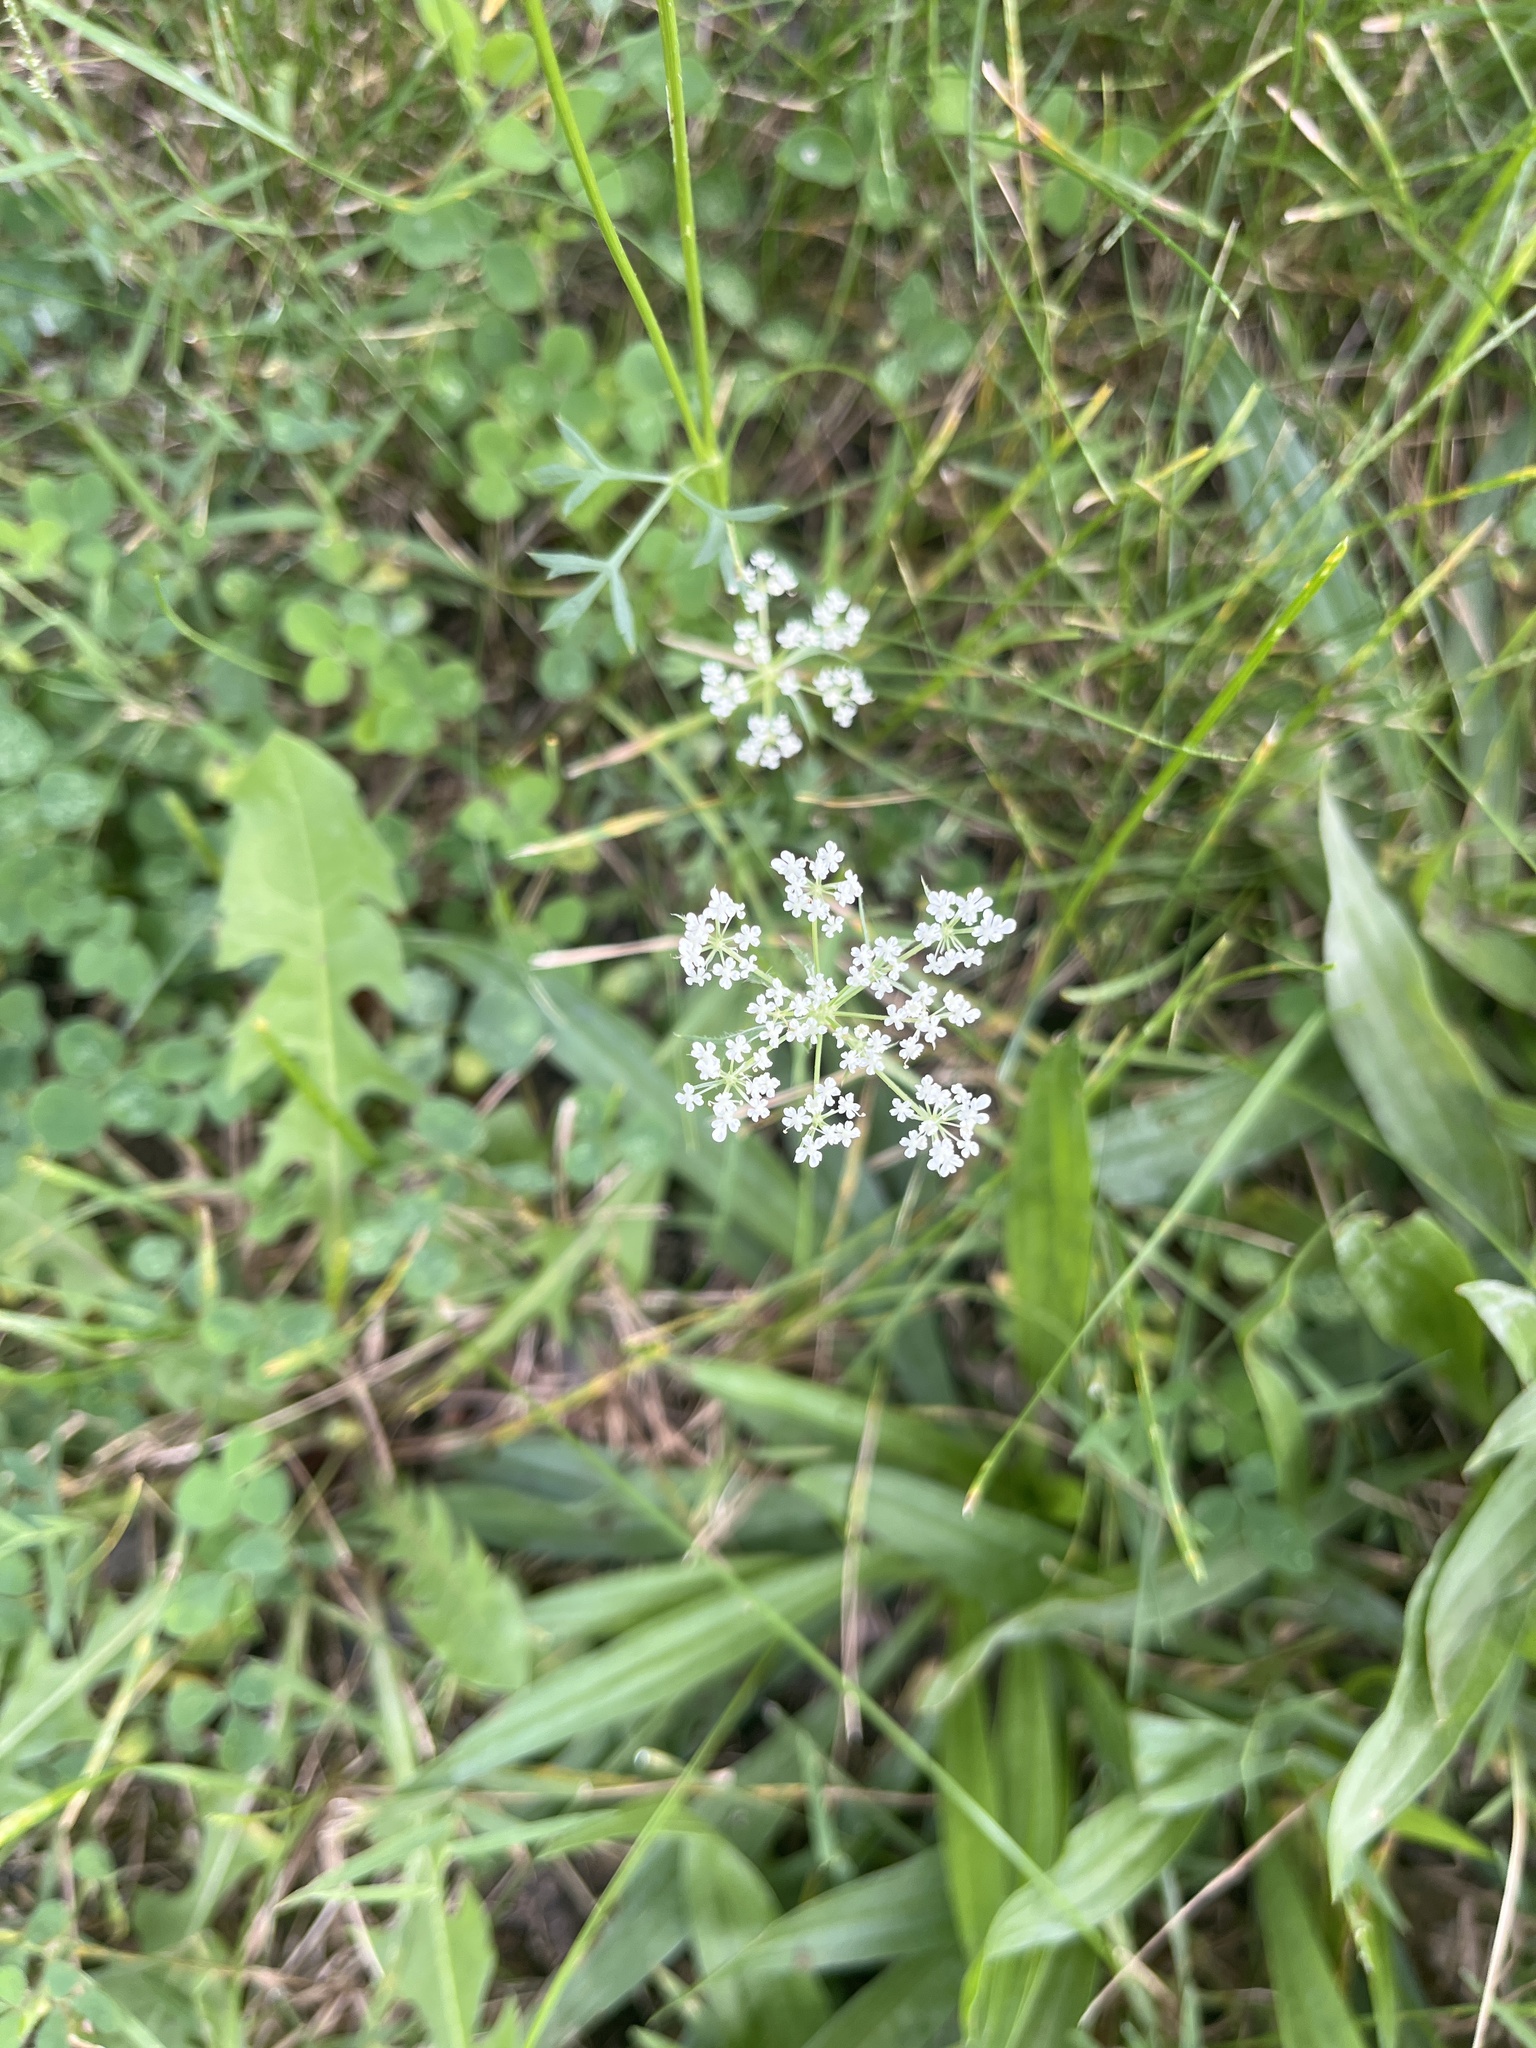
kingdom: Plantae
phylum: Tracheophyta
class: Magnoliopsida
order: Apiales
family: Apiaceae
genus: Daucus
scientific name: Daucus carota
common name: Wild carrot
